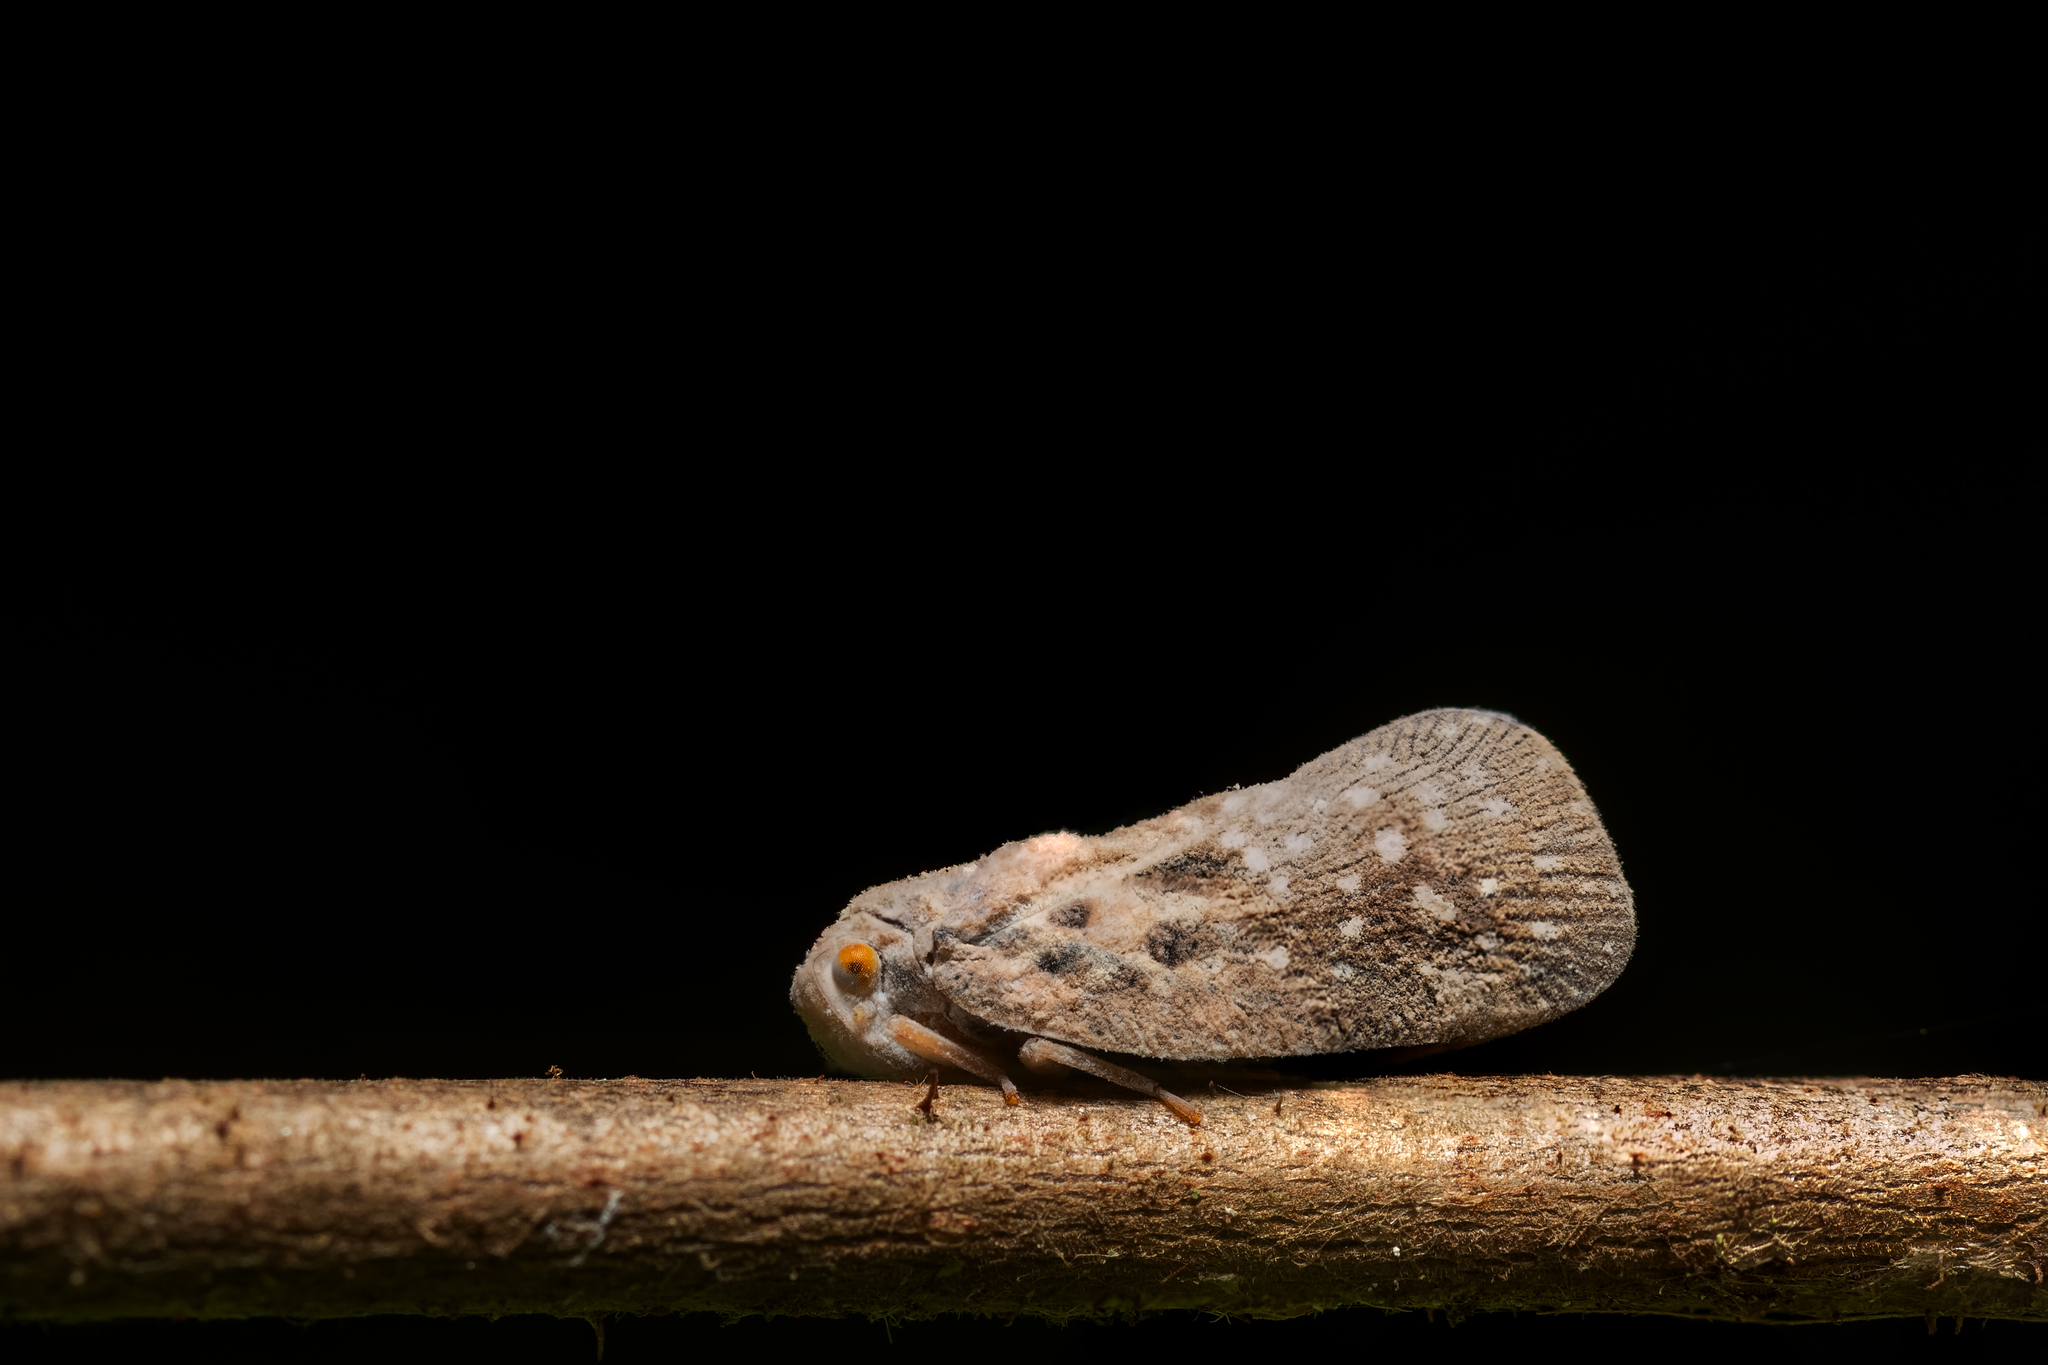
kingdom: Animalia
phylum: Arthropoda
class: Insecta
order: Hemiptera
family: Flatidae
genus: Metcalfa
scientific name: Metcalfa pruinosa
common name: Citrus flatid planthopper
